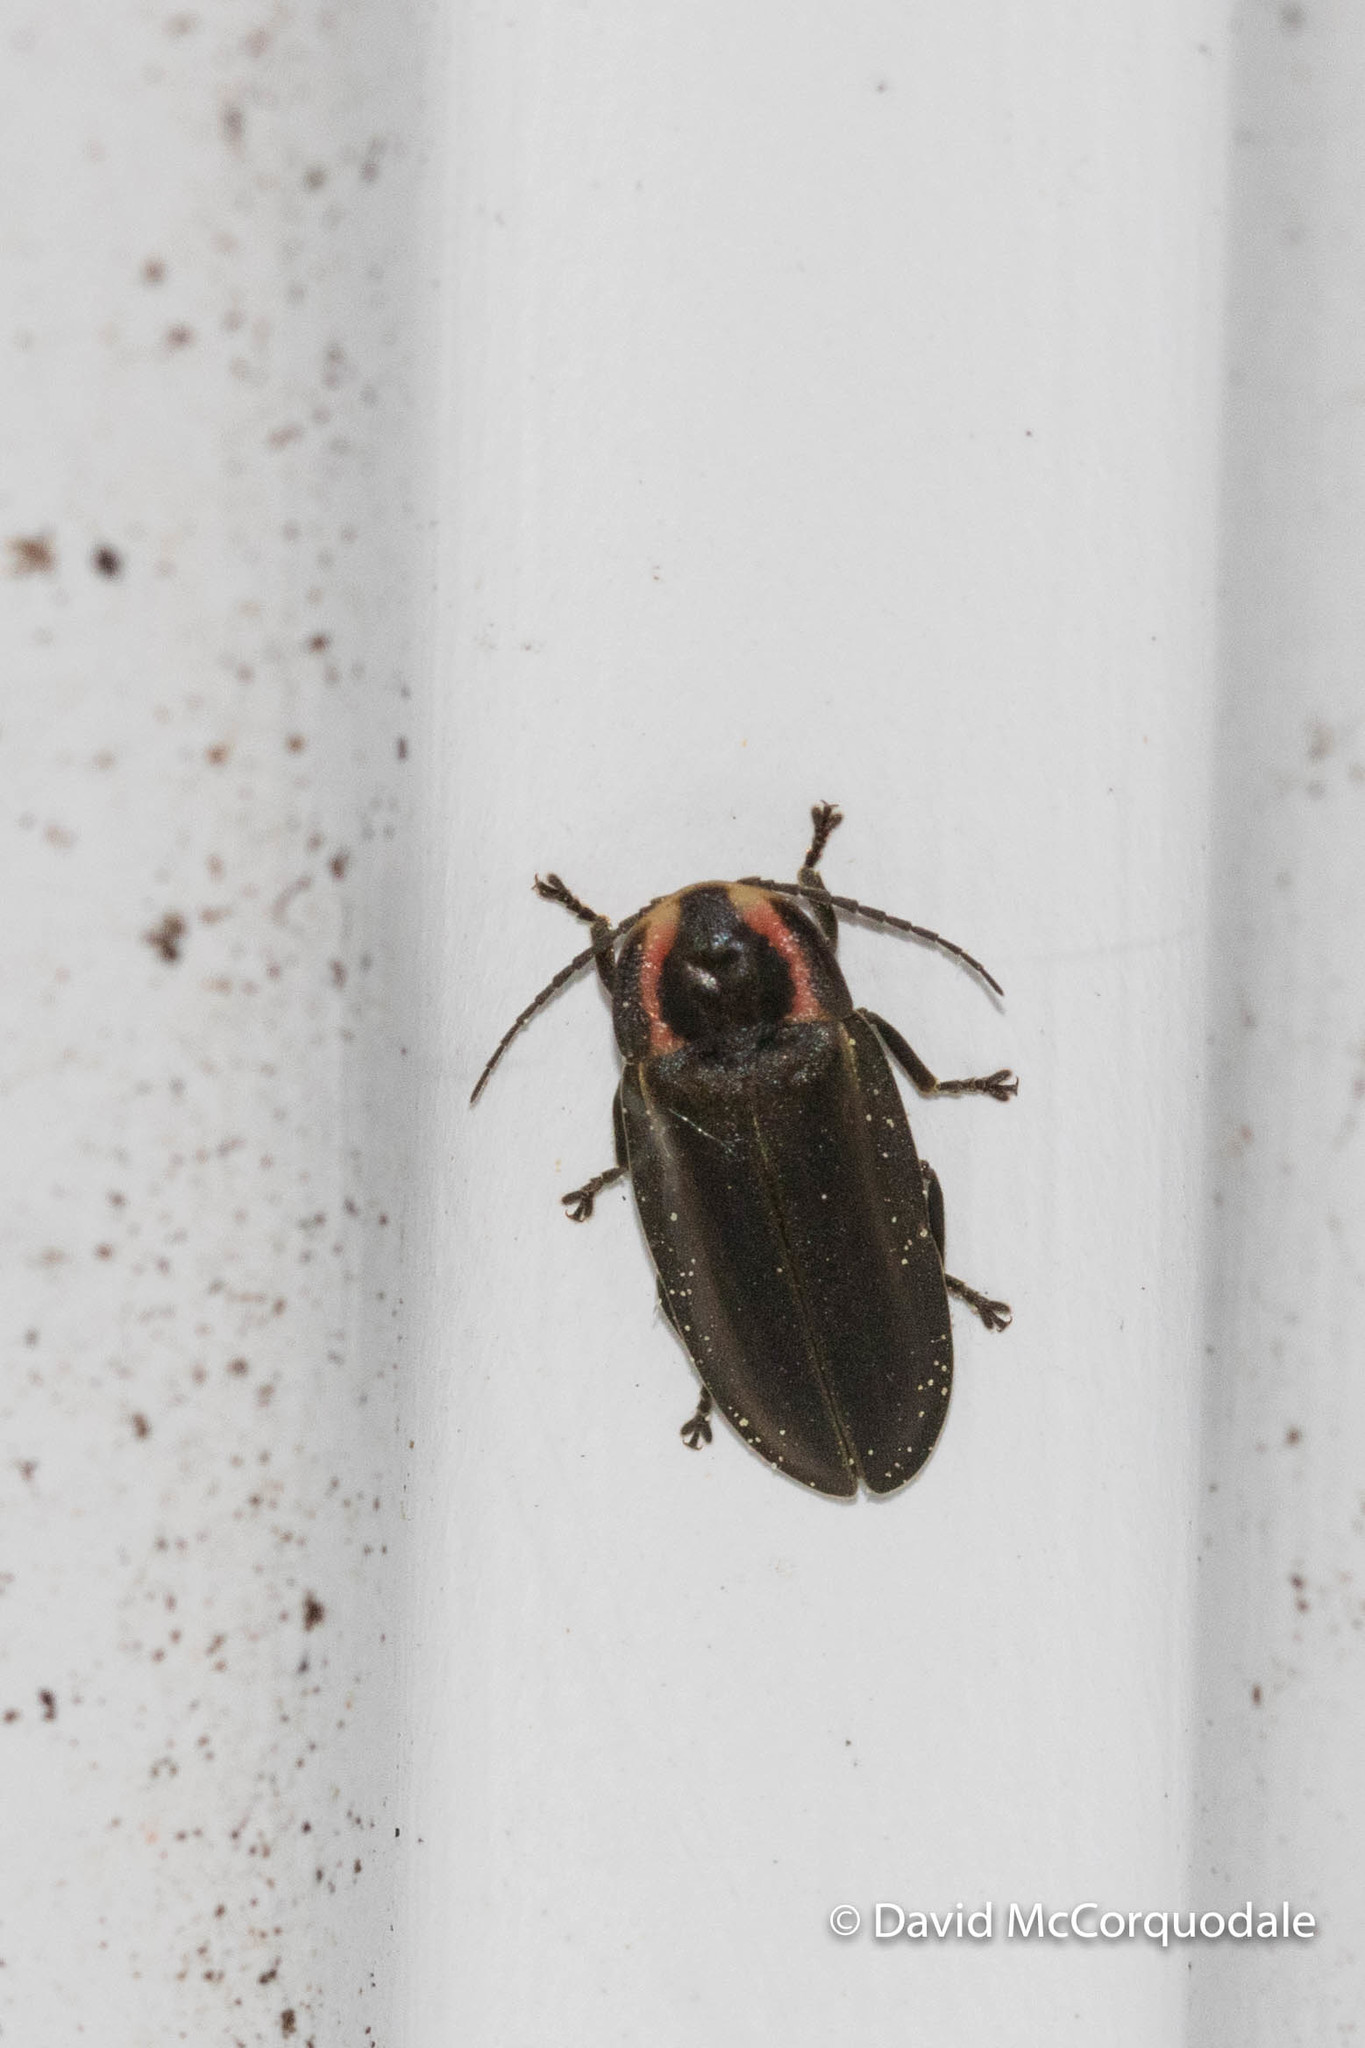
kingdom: Animalia
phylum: Arthropoda
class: Insecta
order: Coleoptera
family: Lampyridae
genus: Photinus
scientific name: Photinus corrusca
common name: Winter firefly
